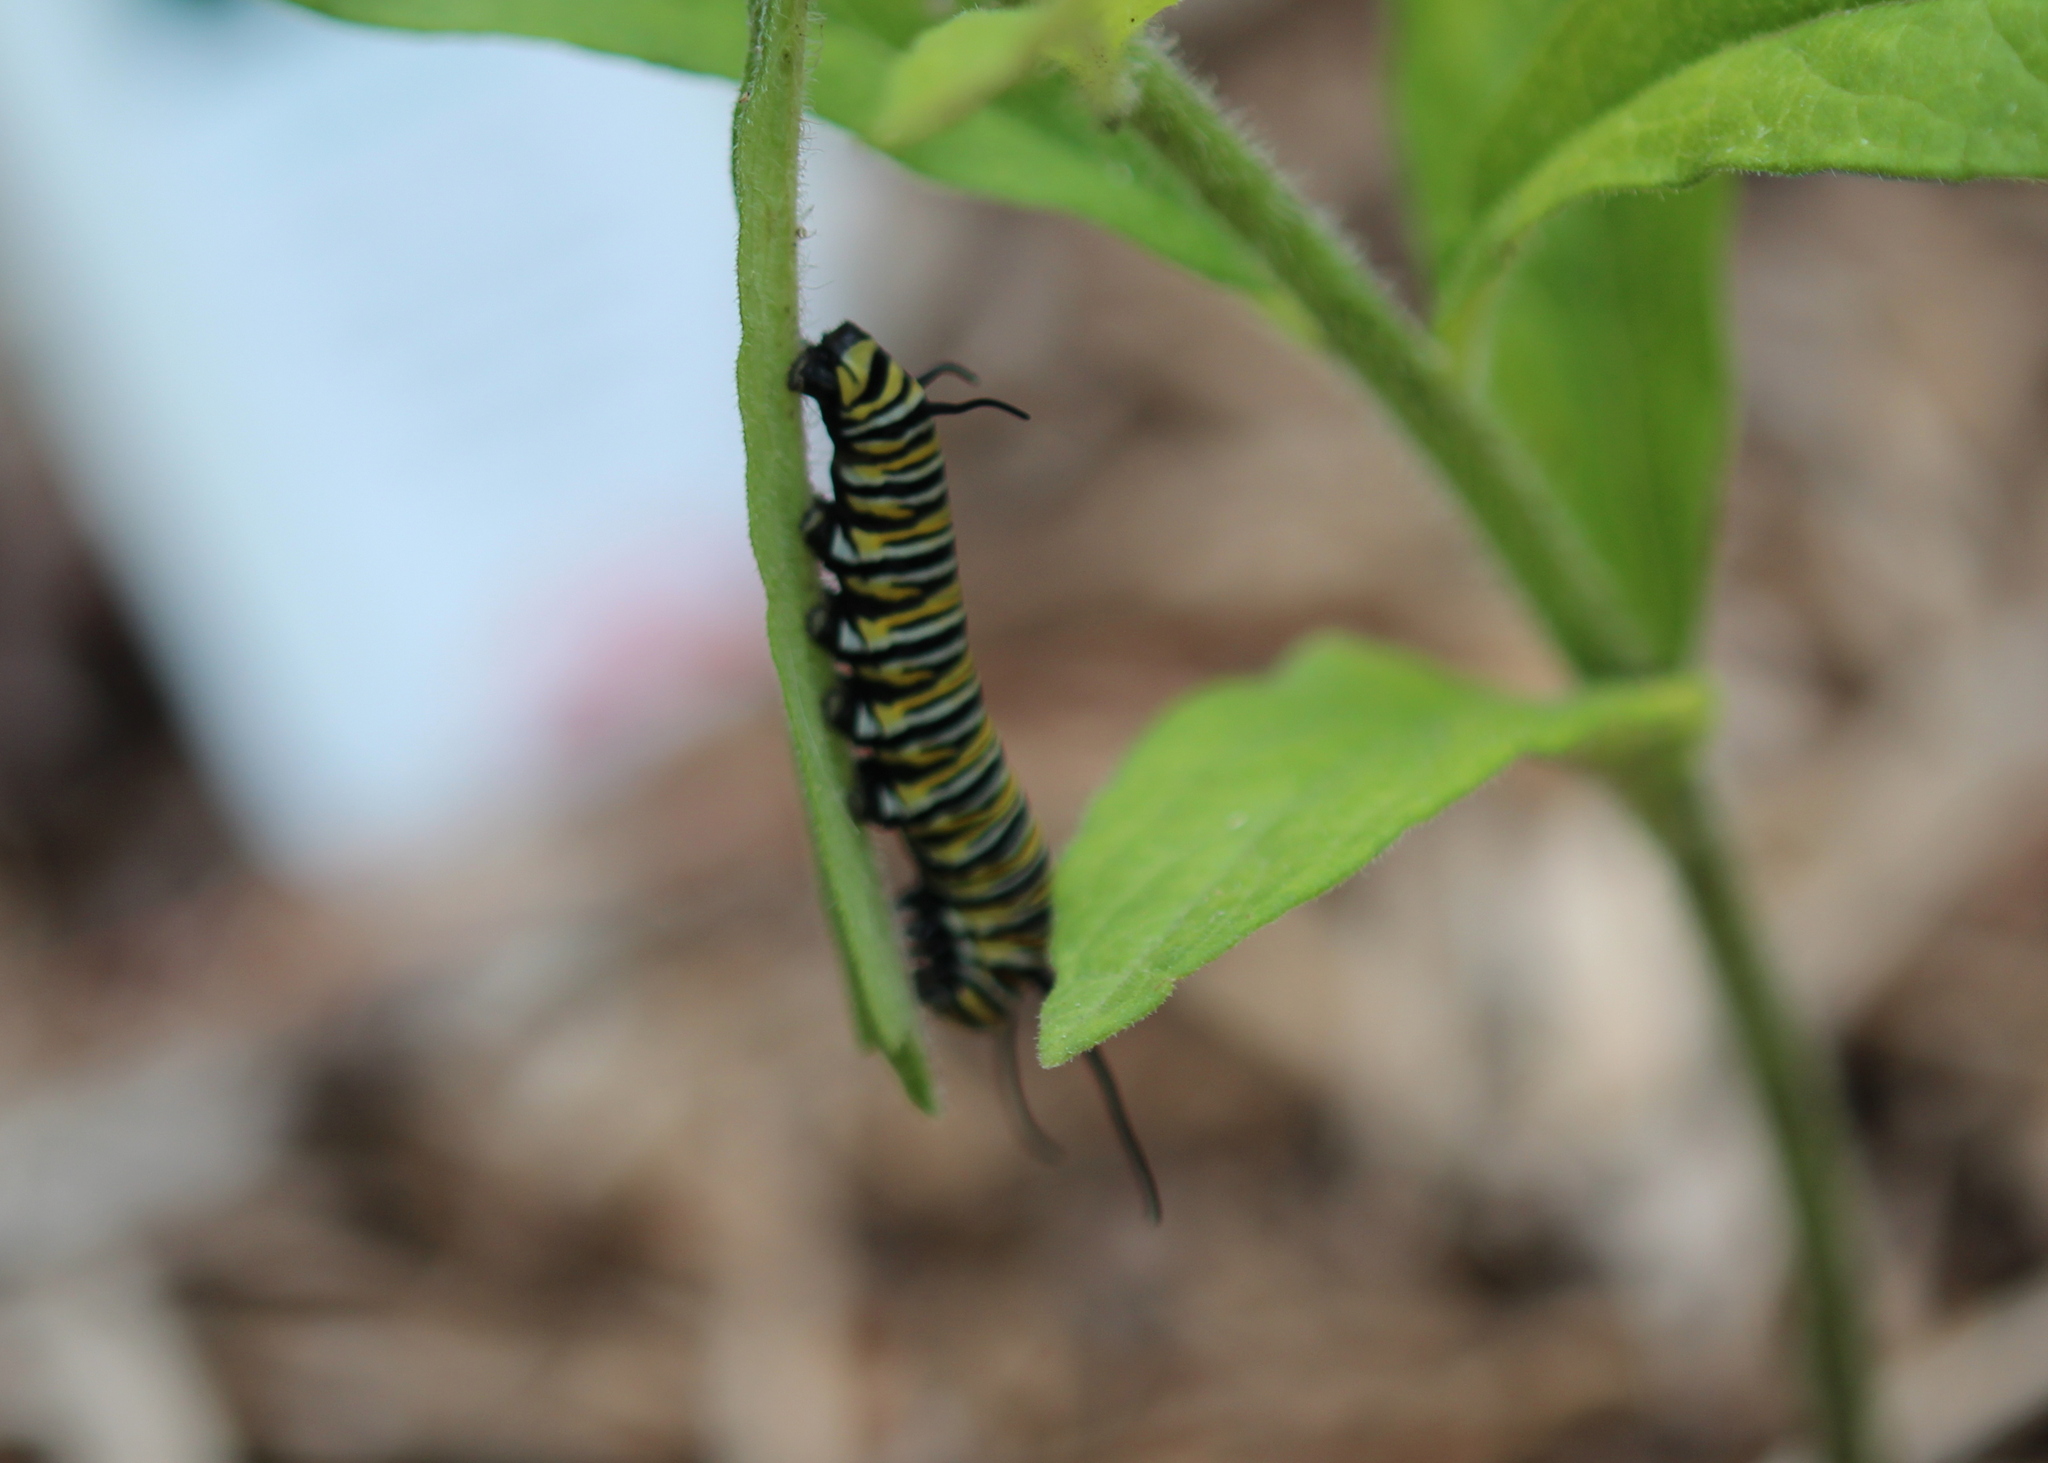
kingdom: Animalia
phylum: Arthropoda
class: Insecta
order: Lepidoptera
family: Nymphalidae
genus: Danaus
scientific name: Danaus plexippus
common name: Monarch
